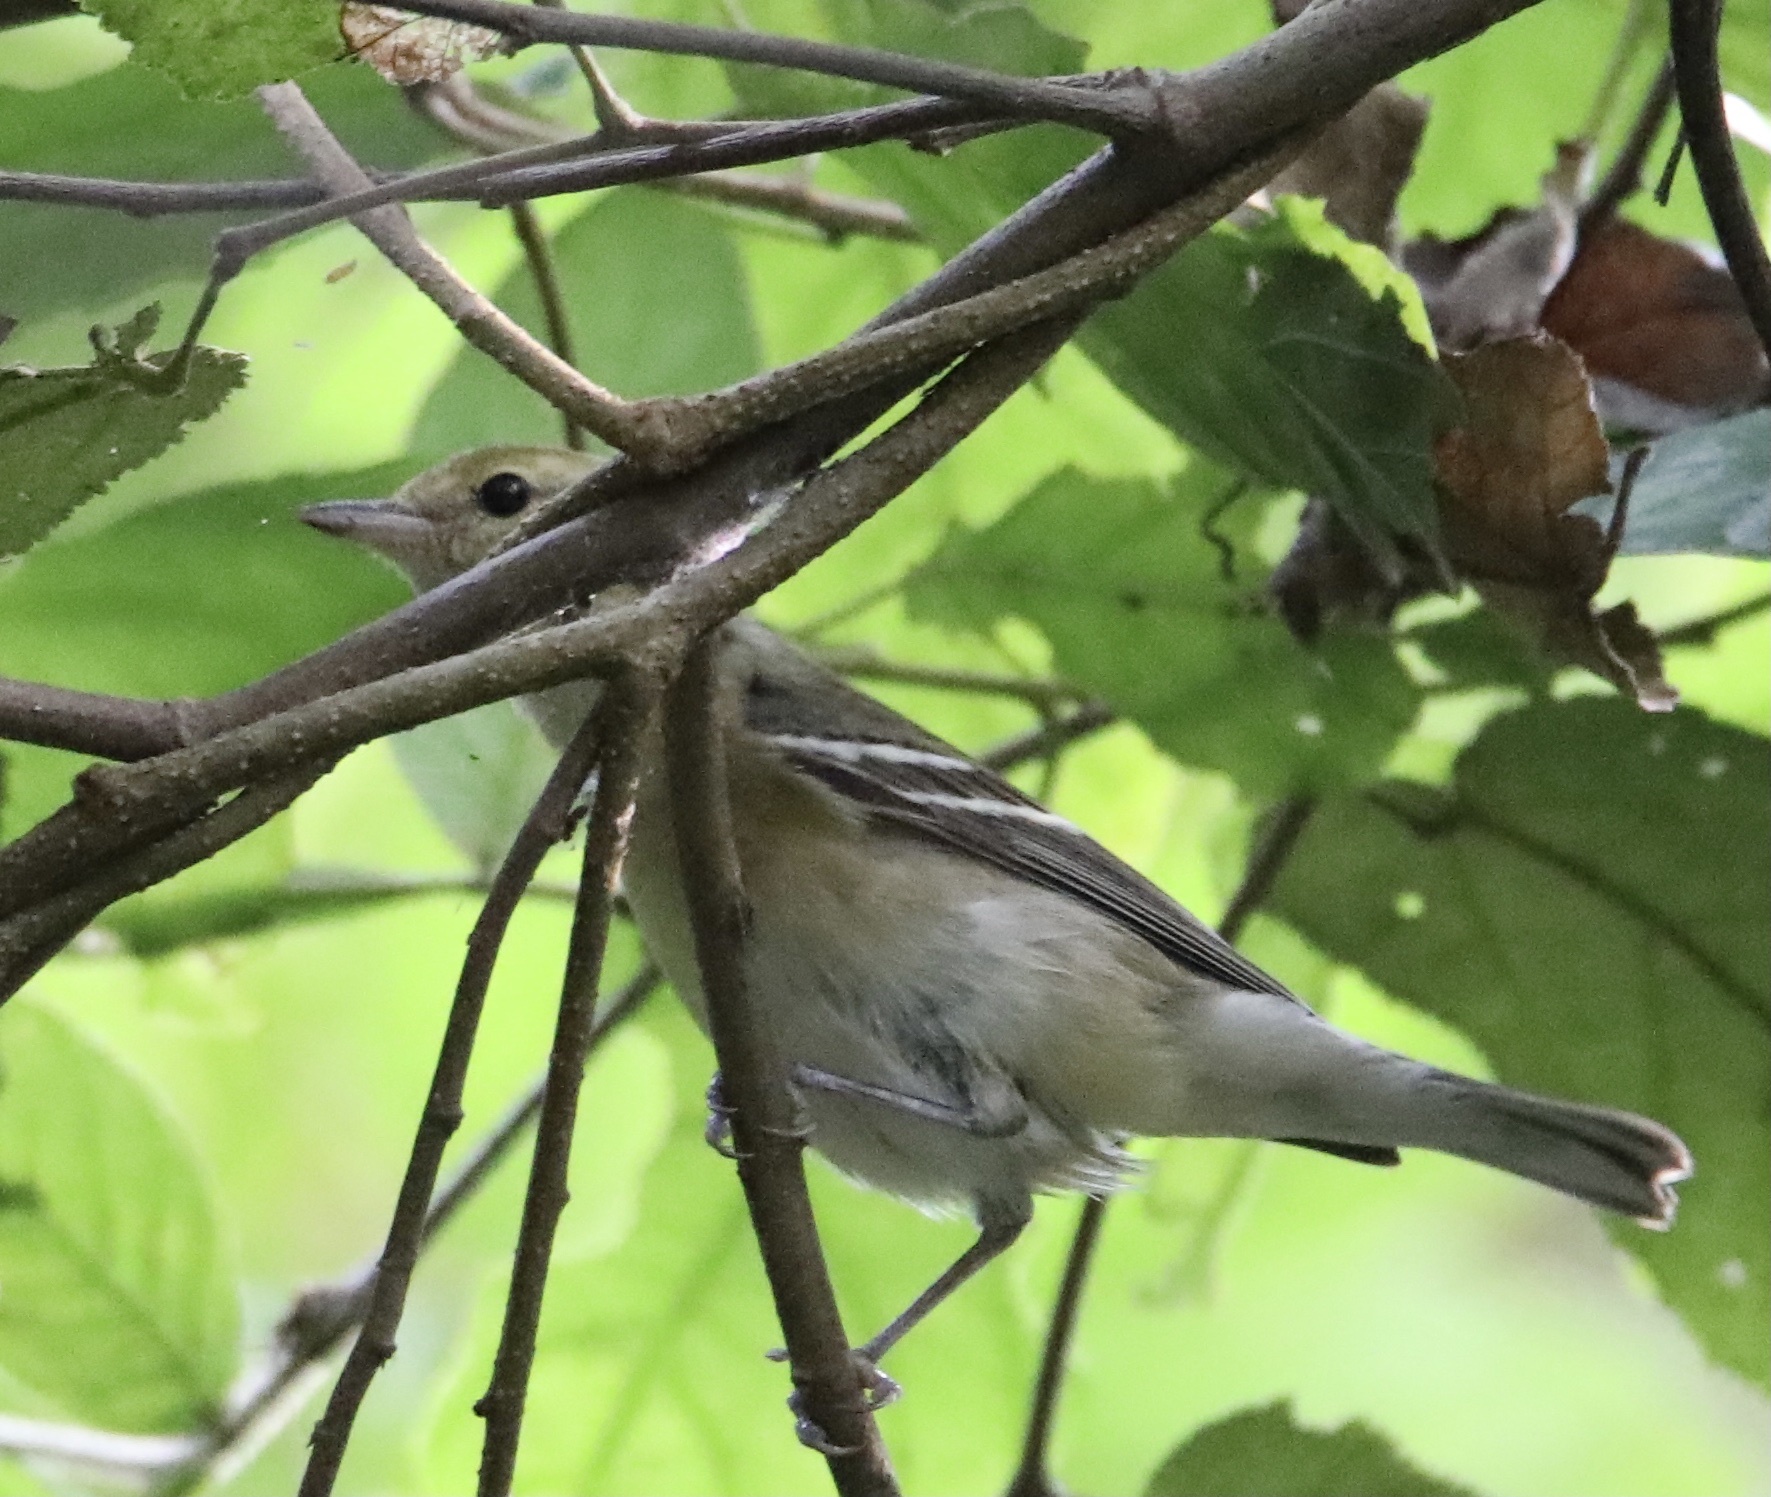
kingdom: Animalia
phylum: Chordata
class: Aves
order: Passeriformes
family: Parulidae
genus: Setophaga
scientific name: Setophaga castanea
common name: Bay-breasted warbler
